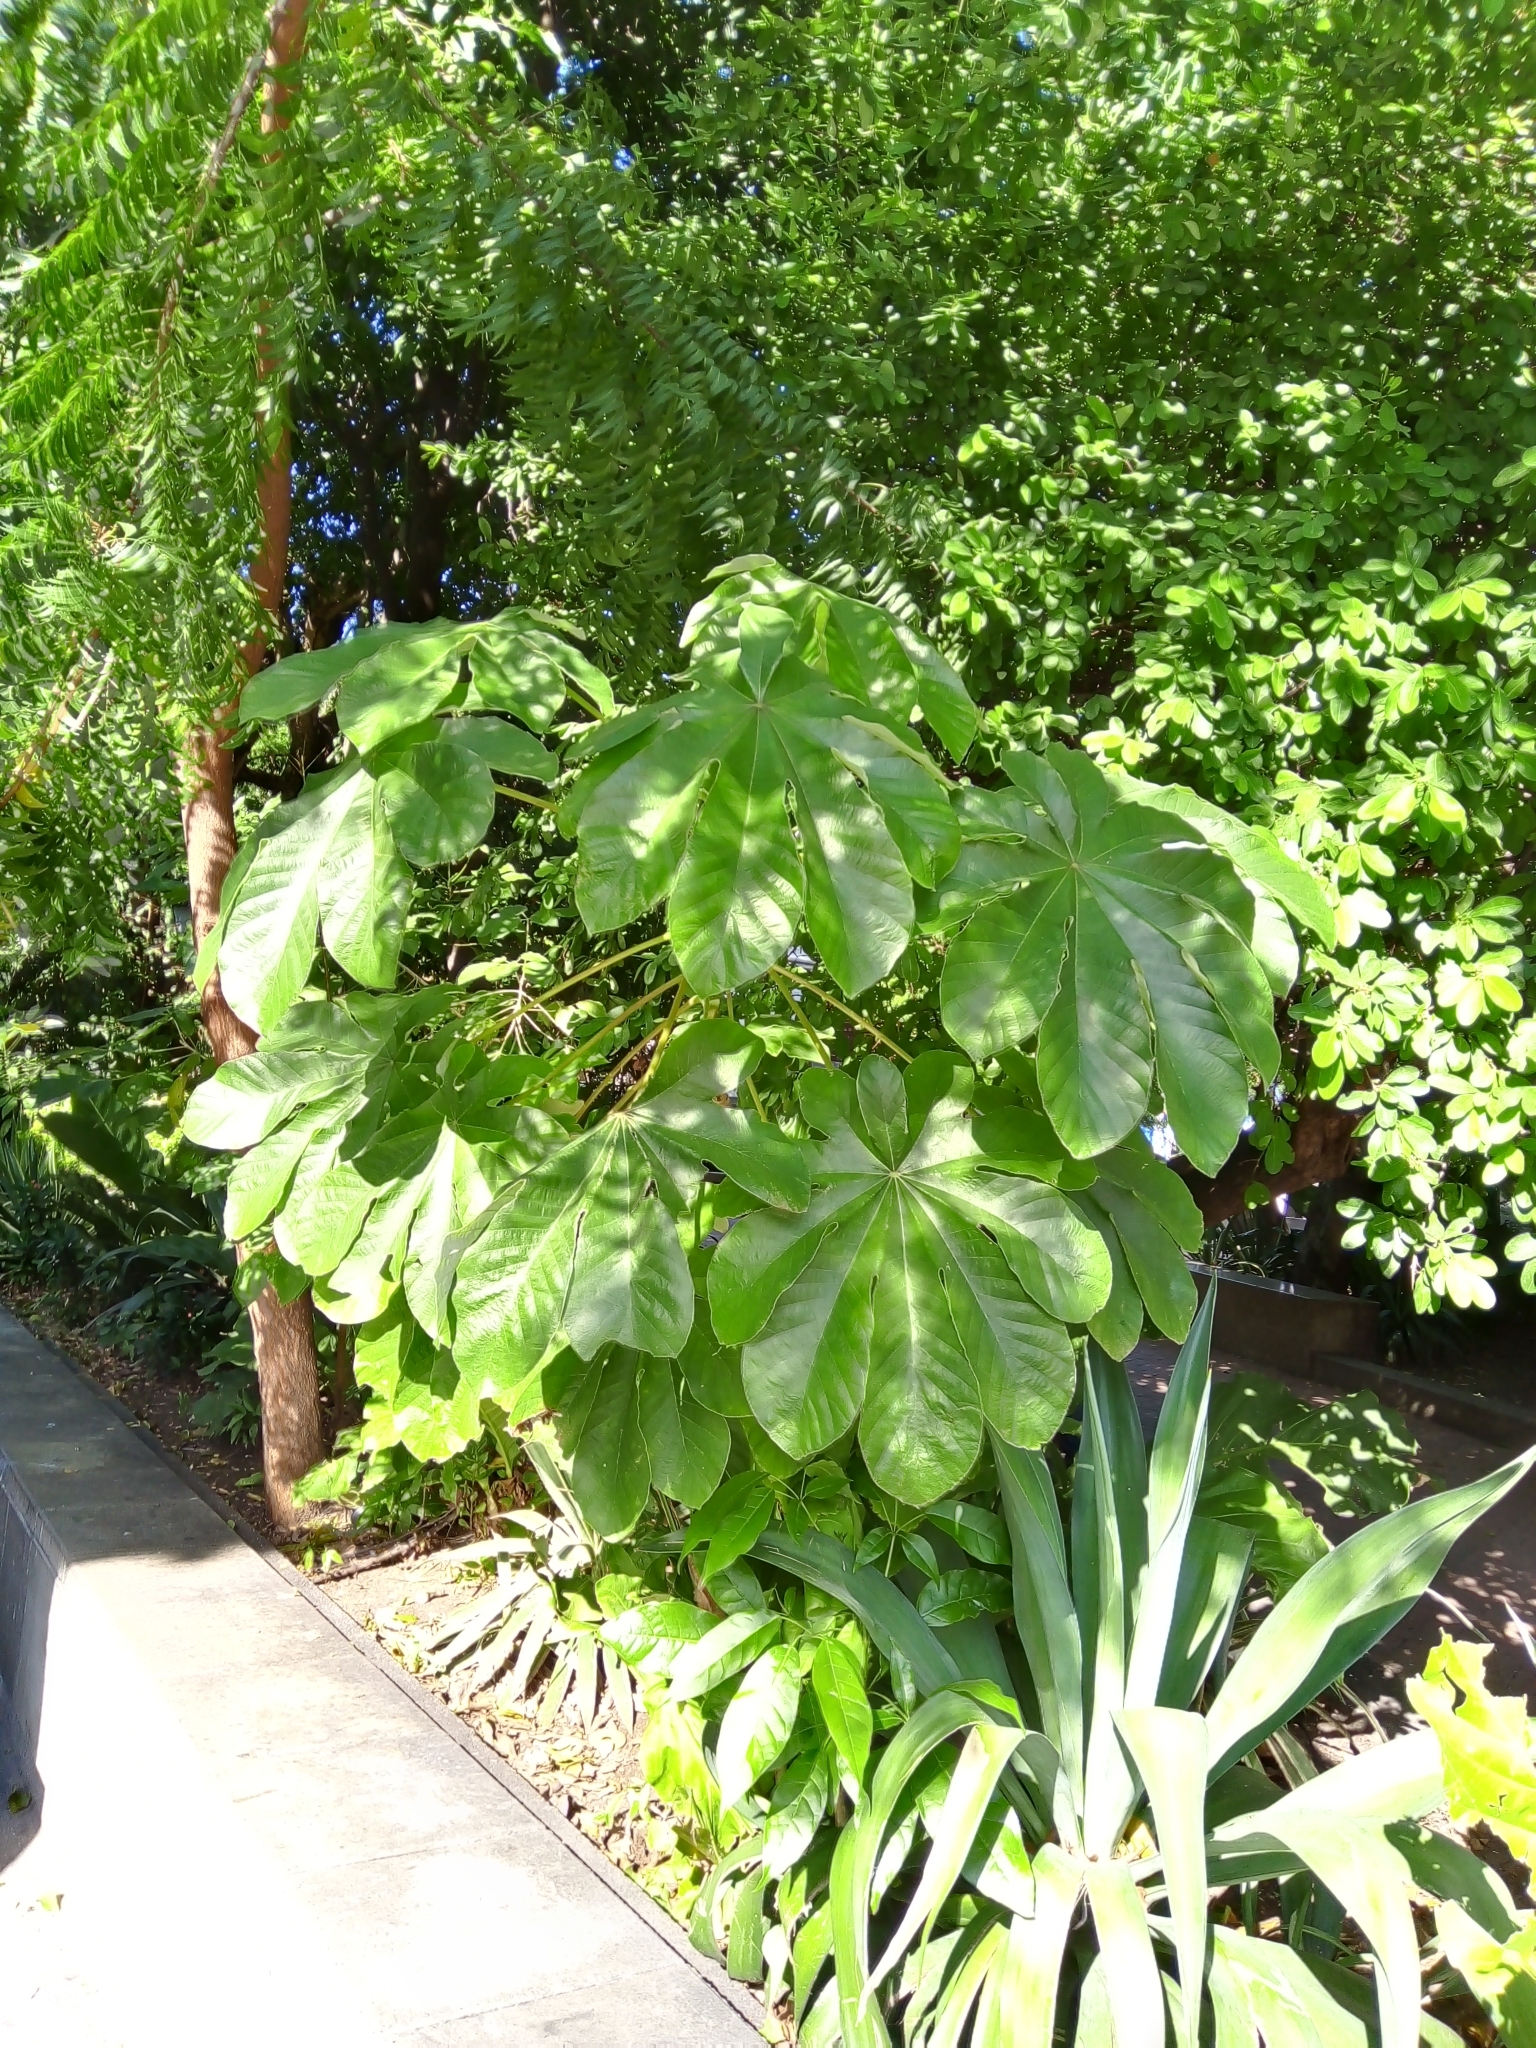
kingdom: Plantae
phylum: Tracheophyta
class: Magnoliopsida
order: Rosales
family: Urticaceae
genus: Cecropia
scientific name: Cecropia peltata
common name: Trumpet-tree
